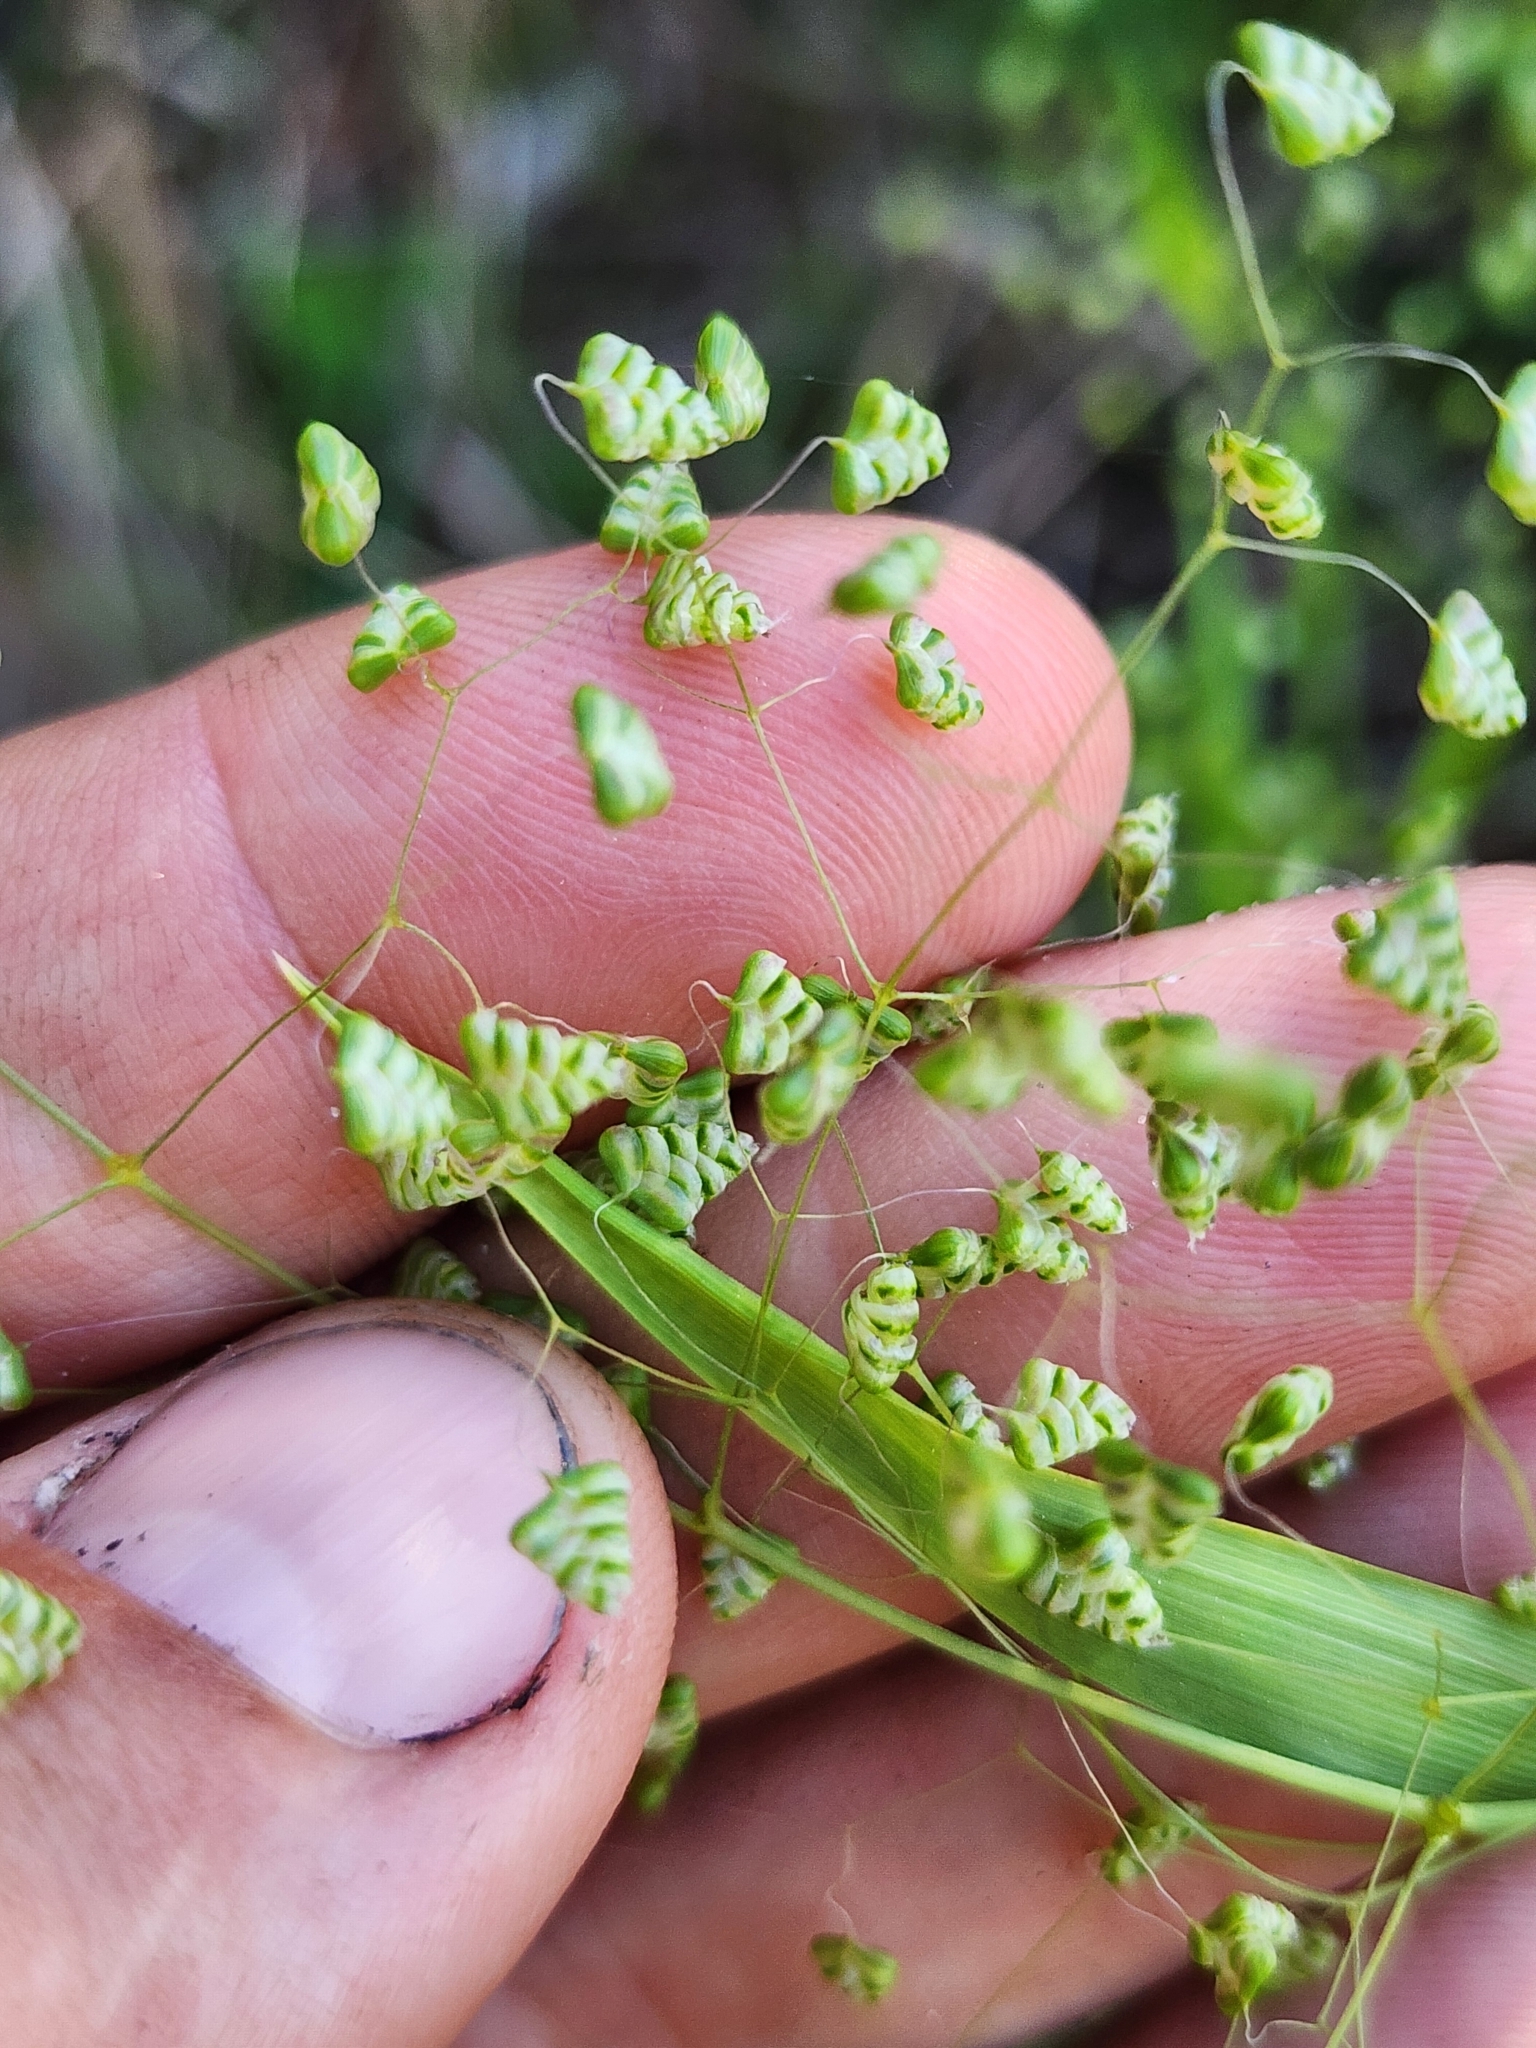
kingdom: Plantae
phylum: Tracheophyta
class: Liliopsida
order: Poales
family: Poaceae
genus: Briza
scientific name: Briza minor
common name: Lesser quaking-grass
